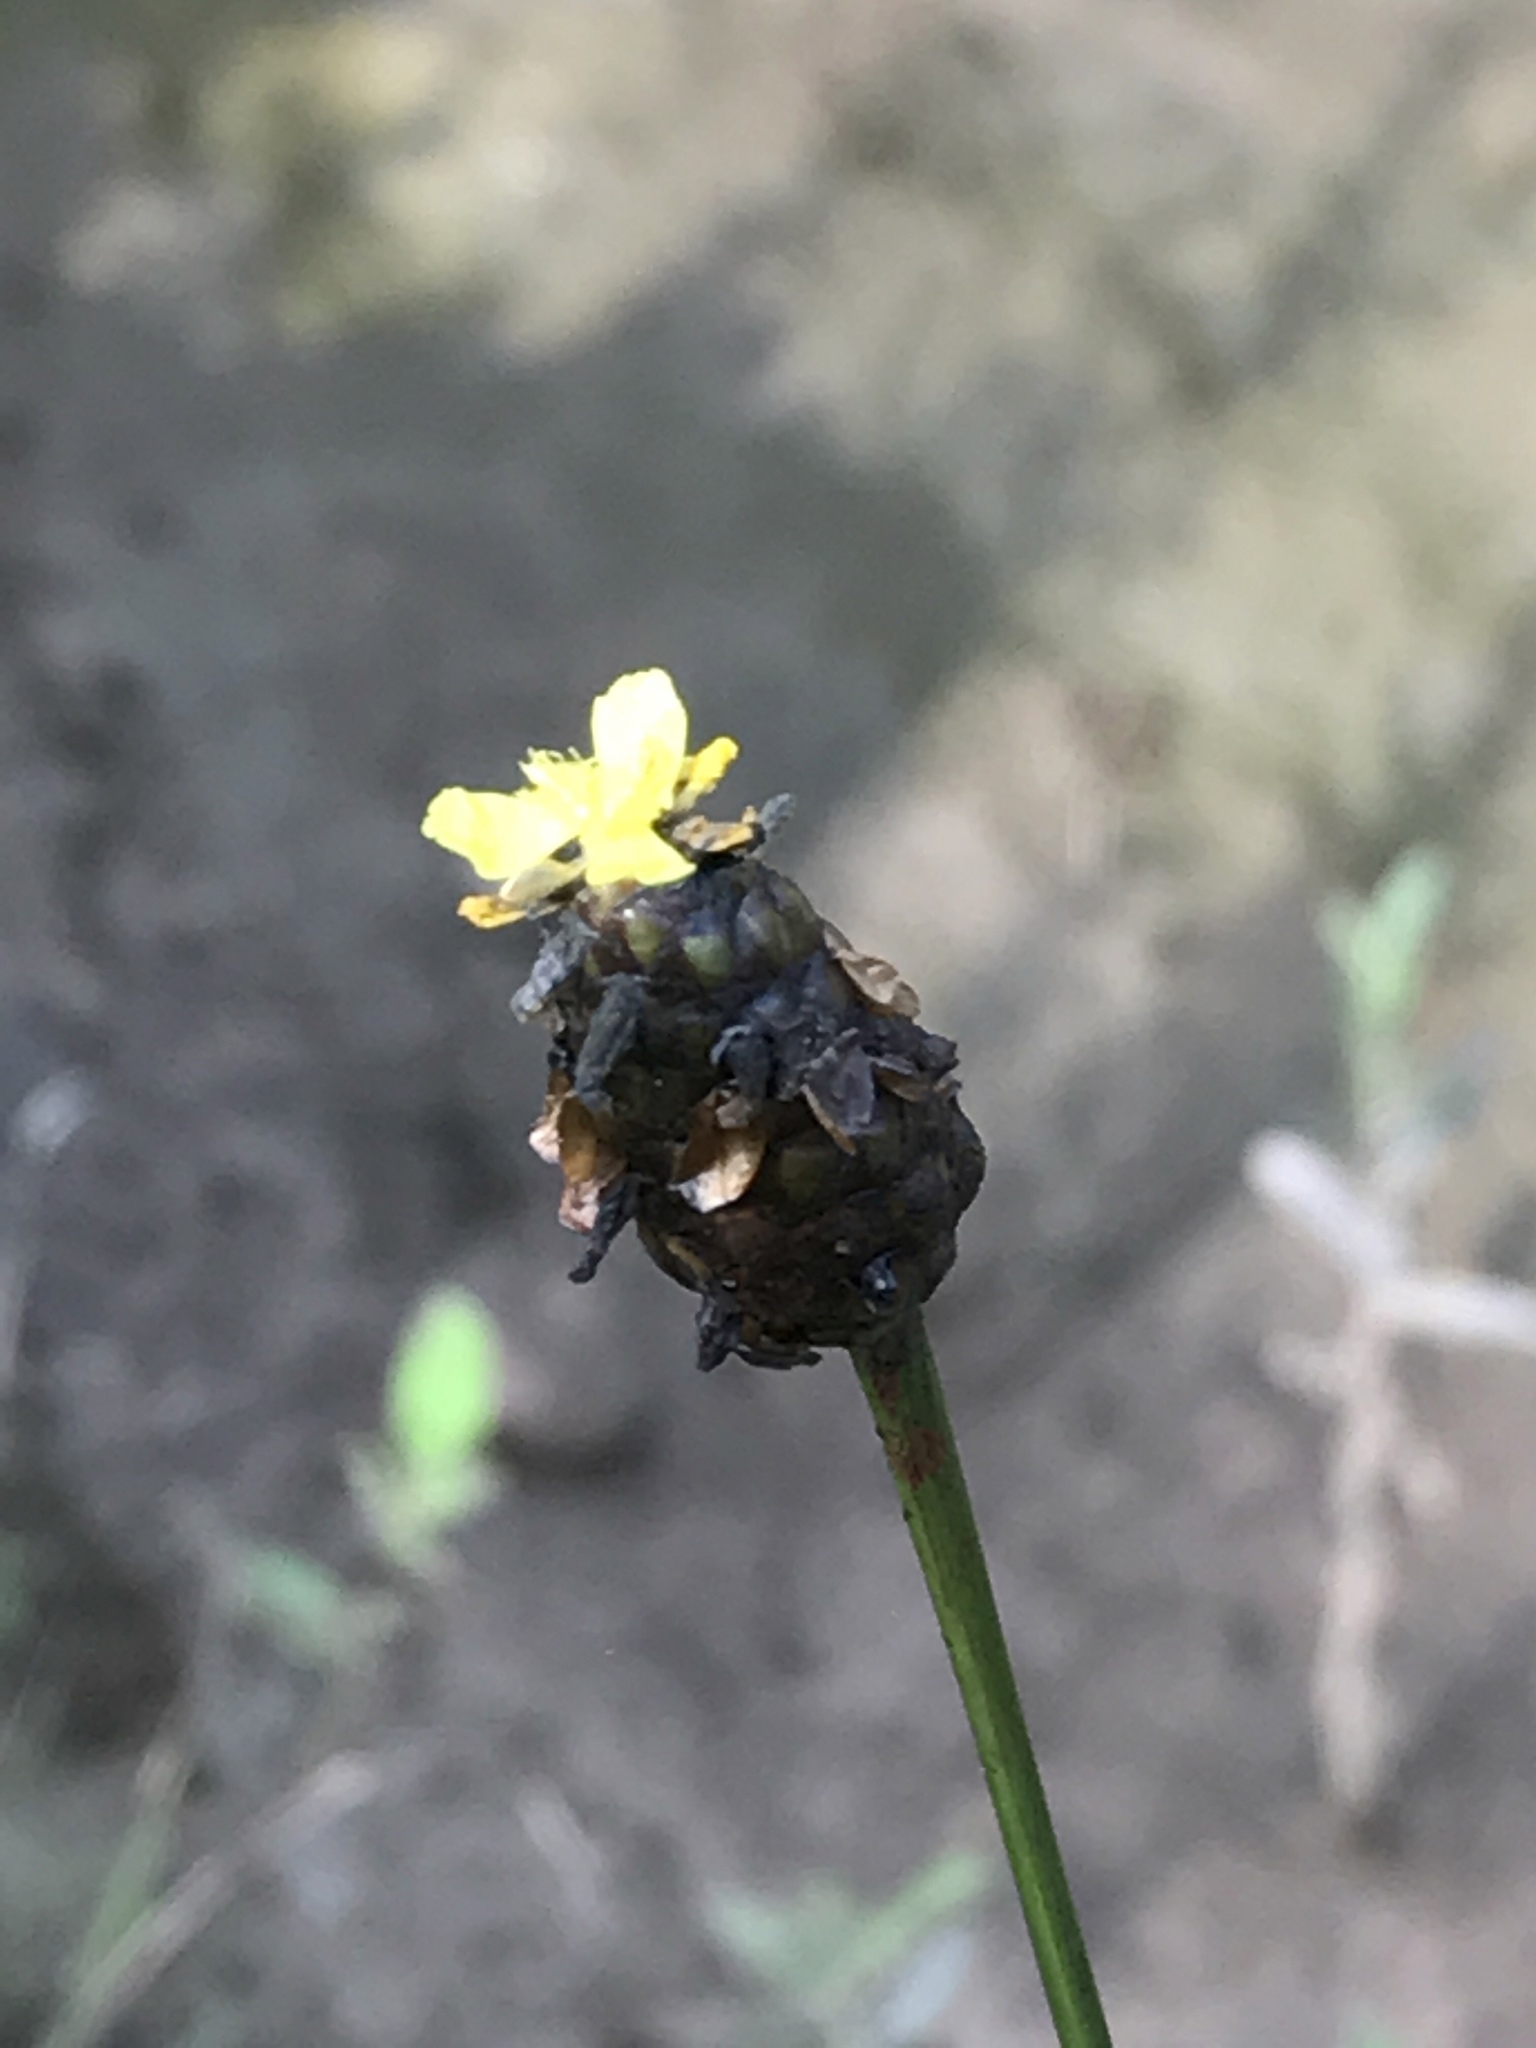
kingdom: Plantae
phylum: Tracheophyta
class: Liliopsida
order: Poales
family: Xyridaceae
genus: Xyris
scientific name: Xyris laxifolia
